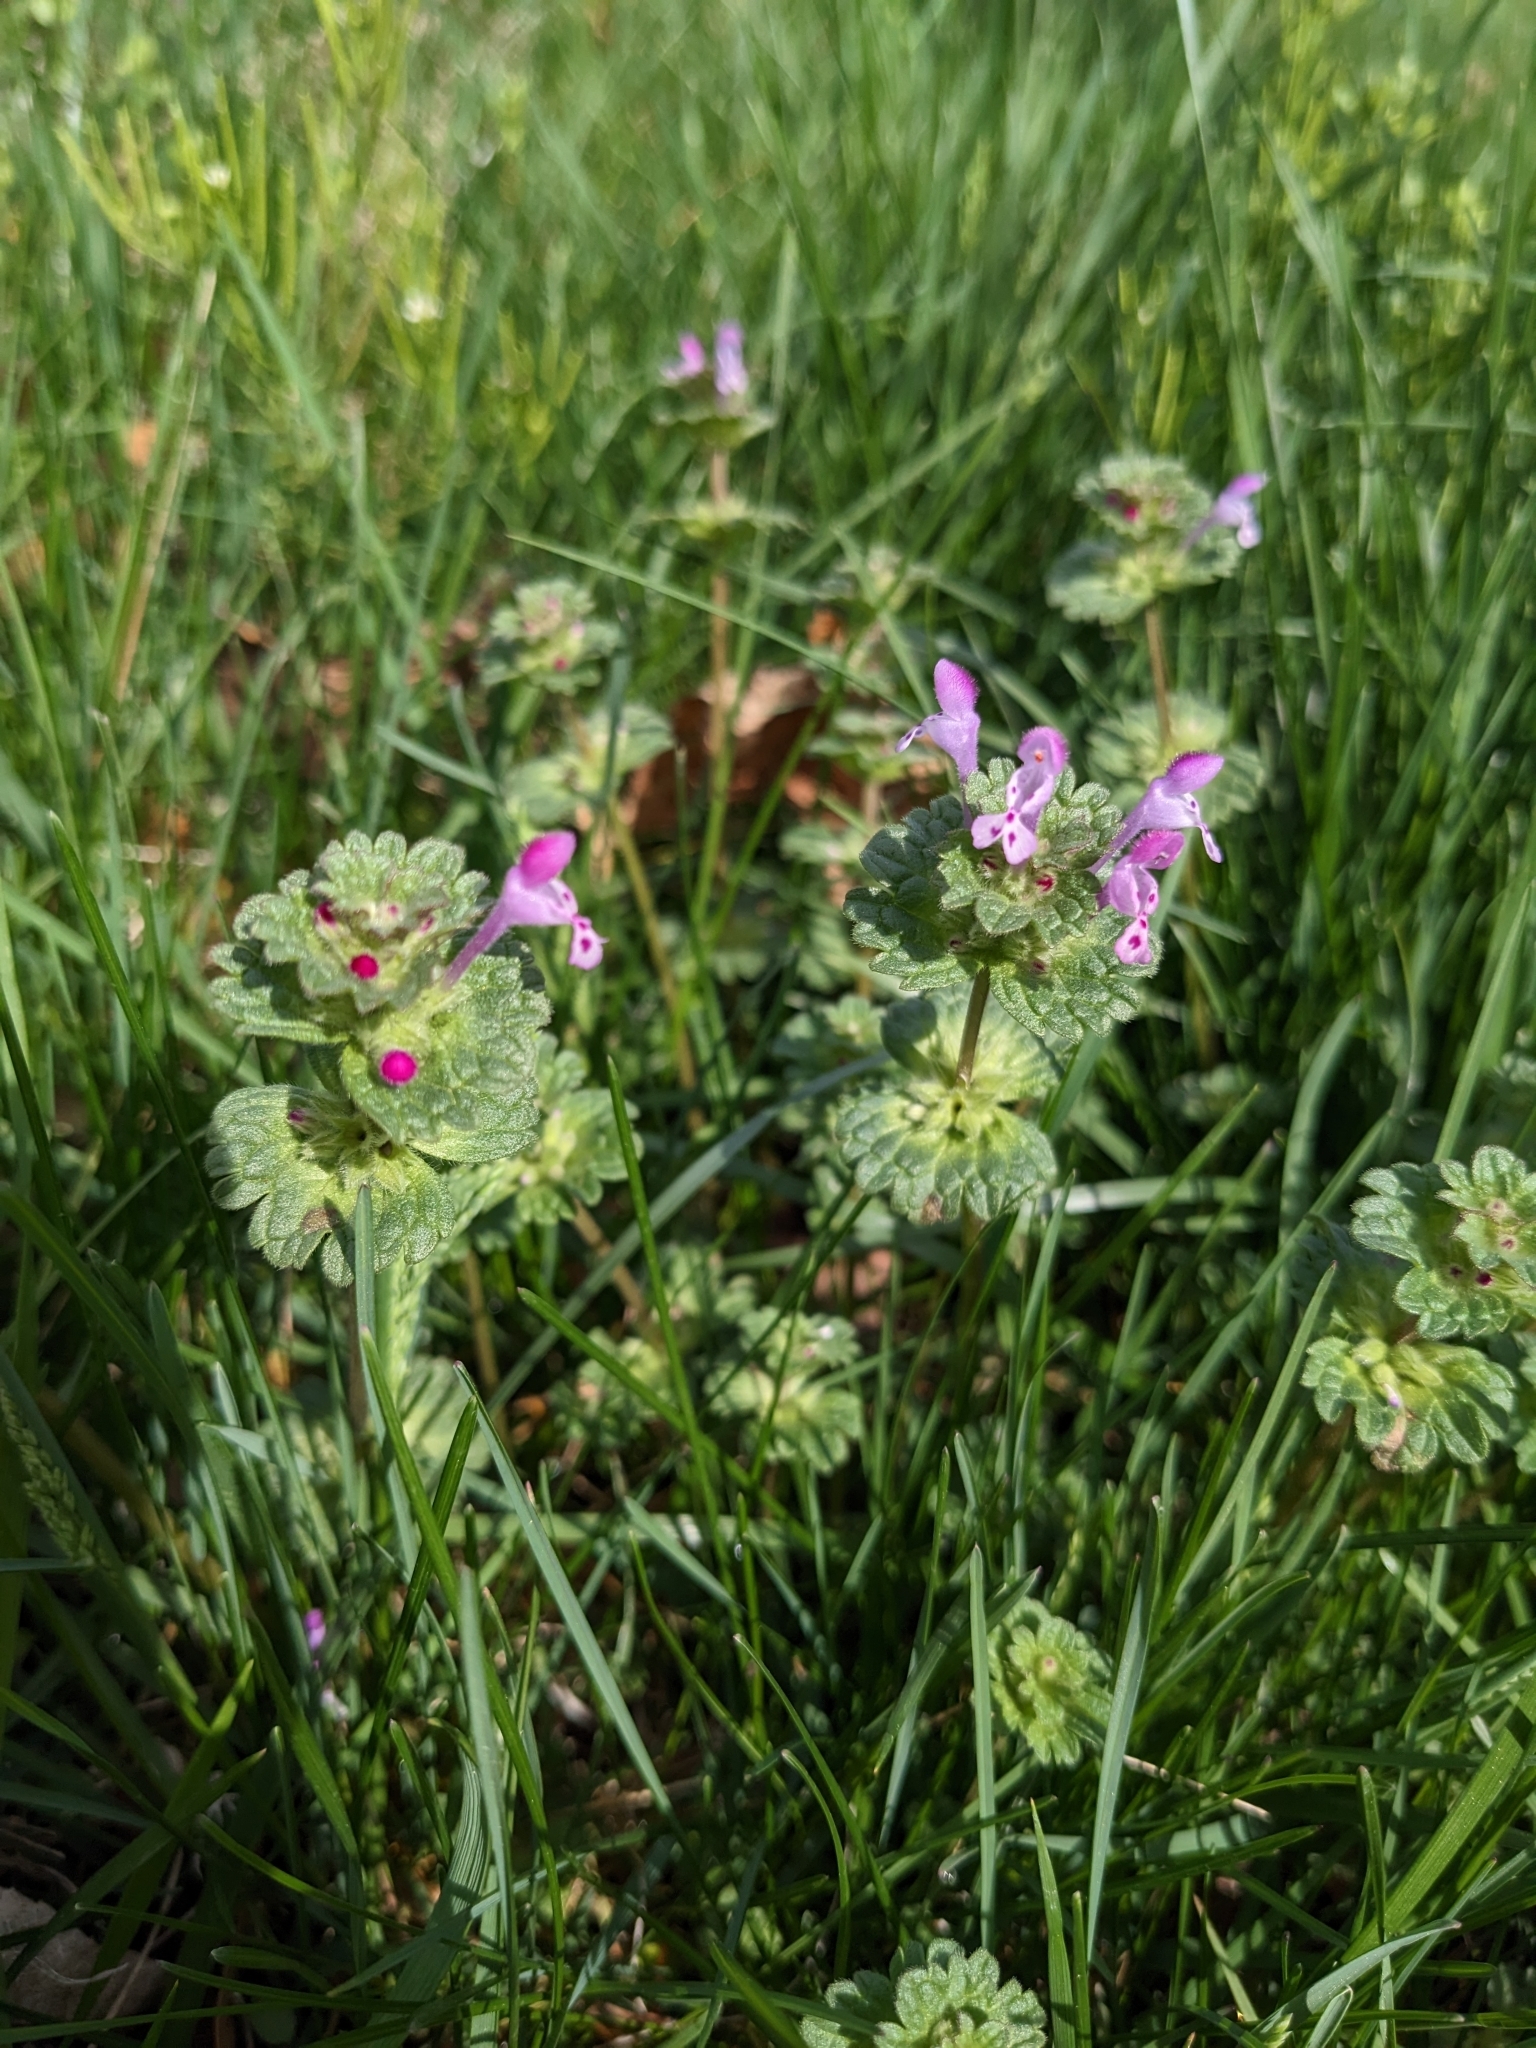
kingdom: Plantae
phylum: Tracheophyta
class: Magnoliopsida
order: Lamiales
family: Lamiaceae
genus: Lamium
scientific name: Lamium amplexicaule
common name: Henbit dead-nettle
